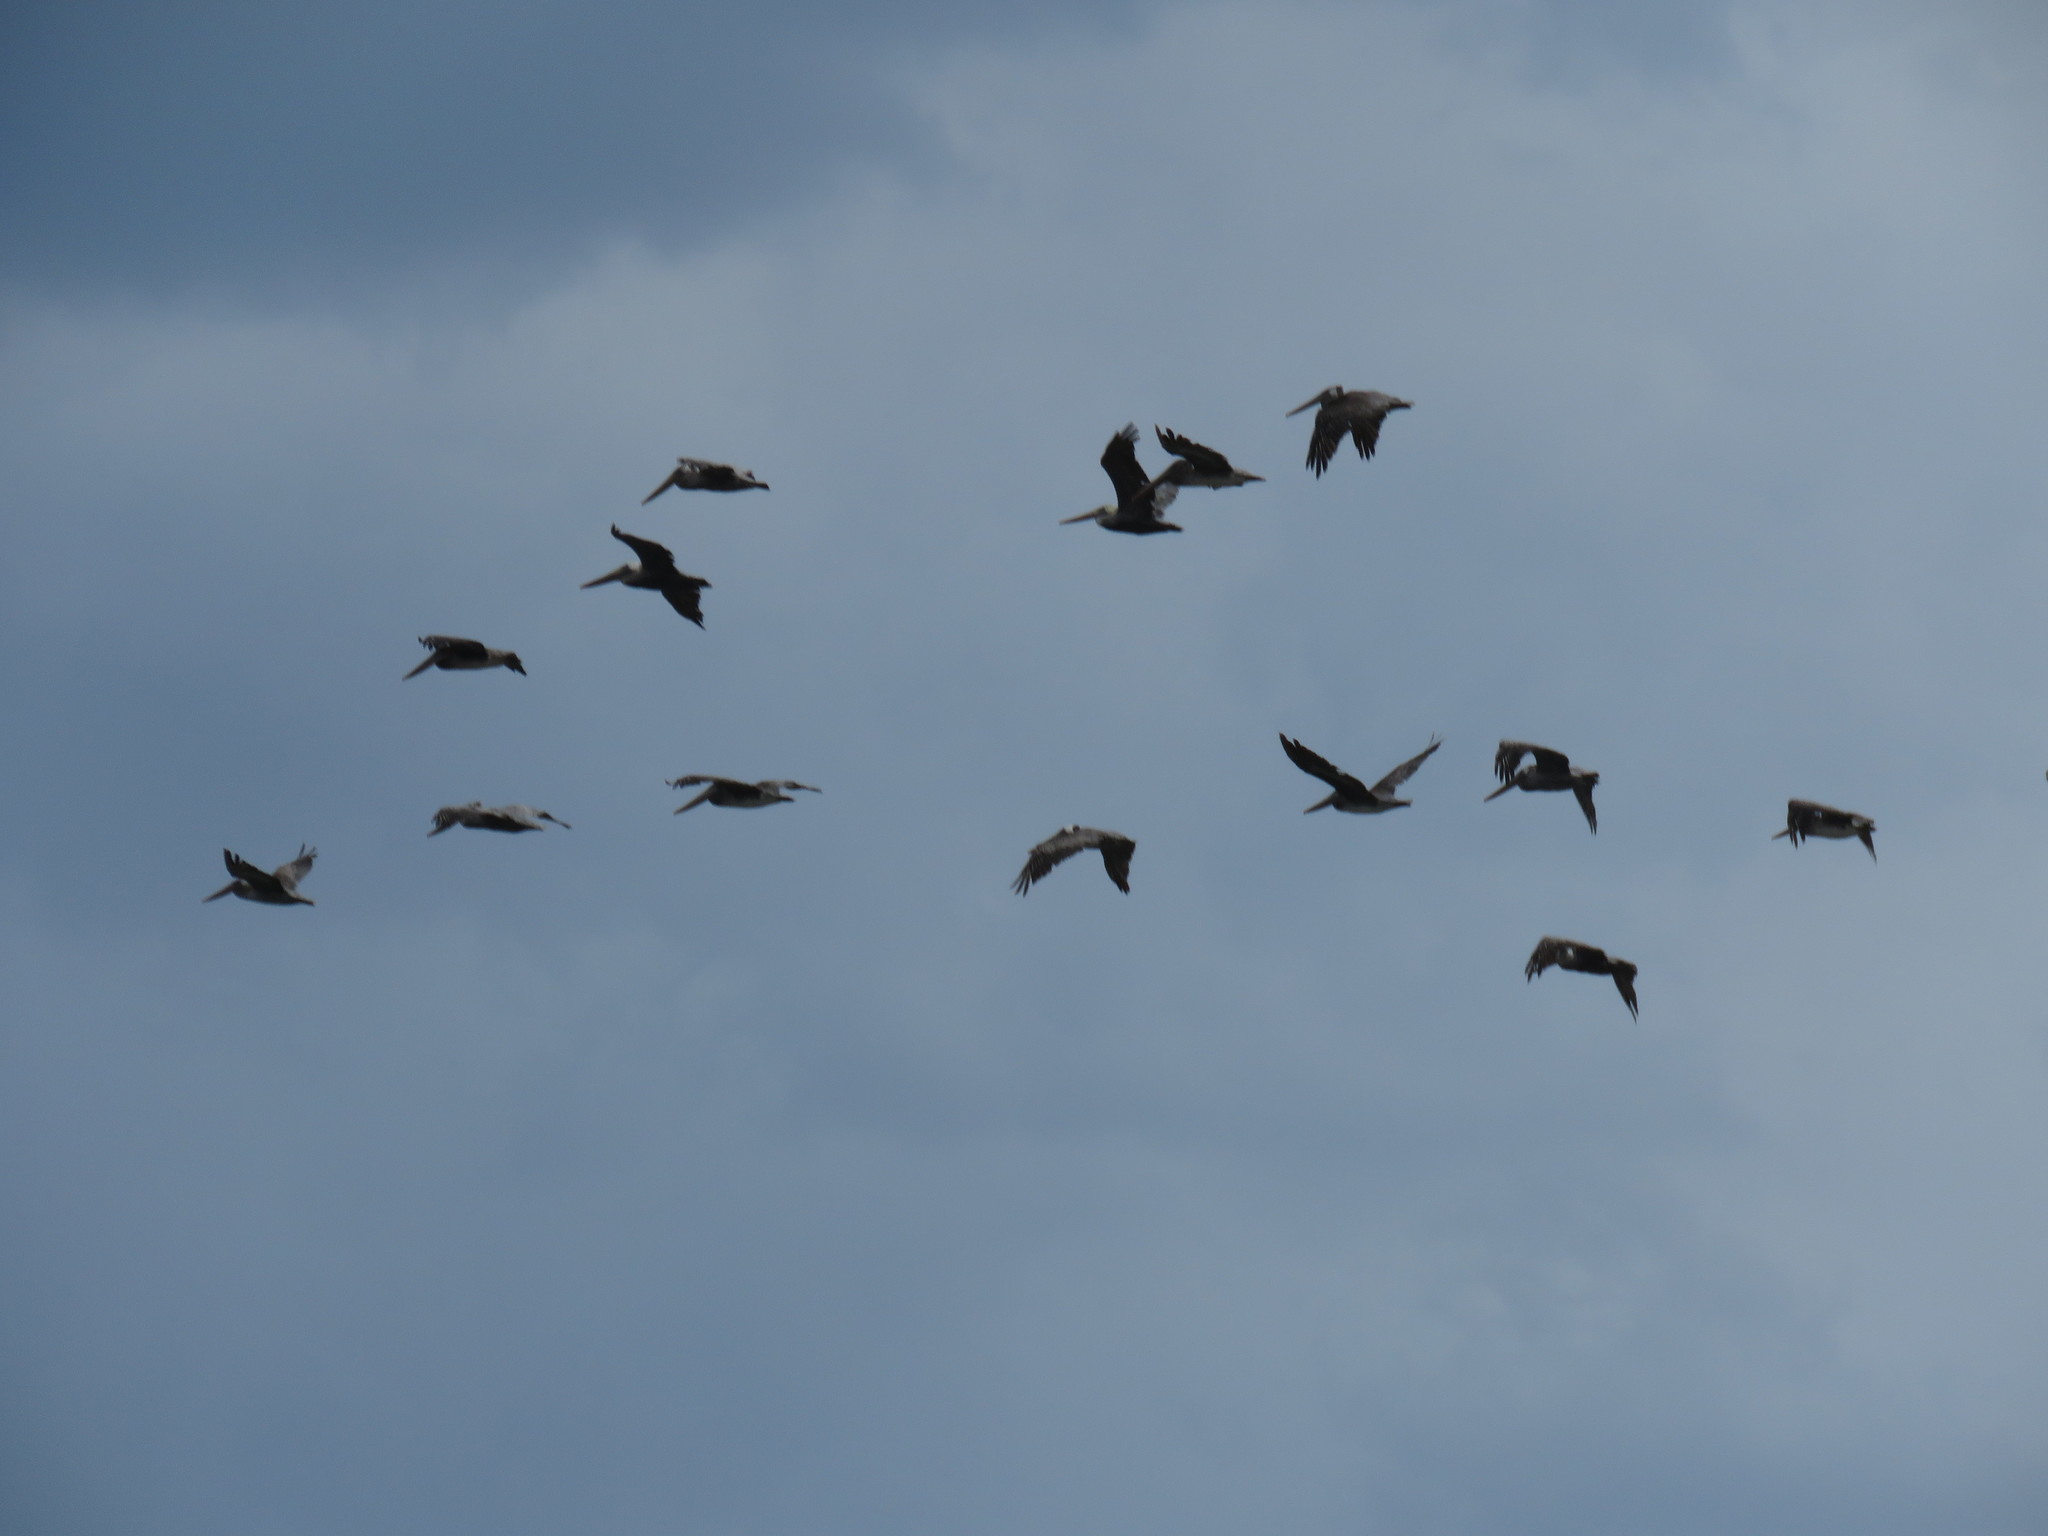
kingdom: Animalia
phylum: Chordata
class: Aves
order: Pelecaniformes
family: Pelecanidae
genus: Pelecanus
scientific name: Pelecanus occidentalis
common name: Brown pelican
